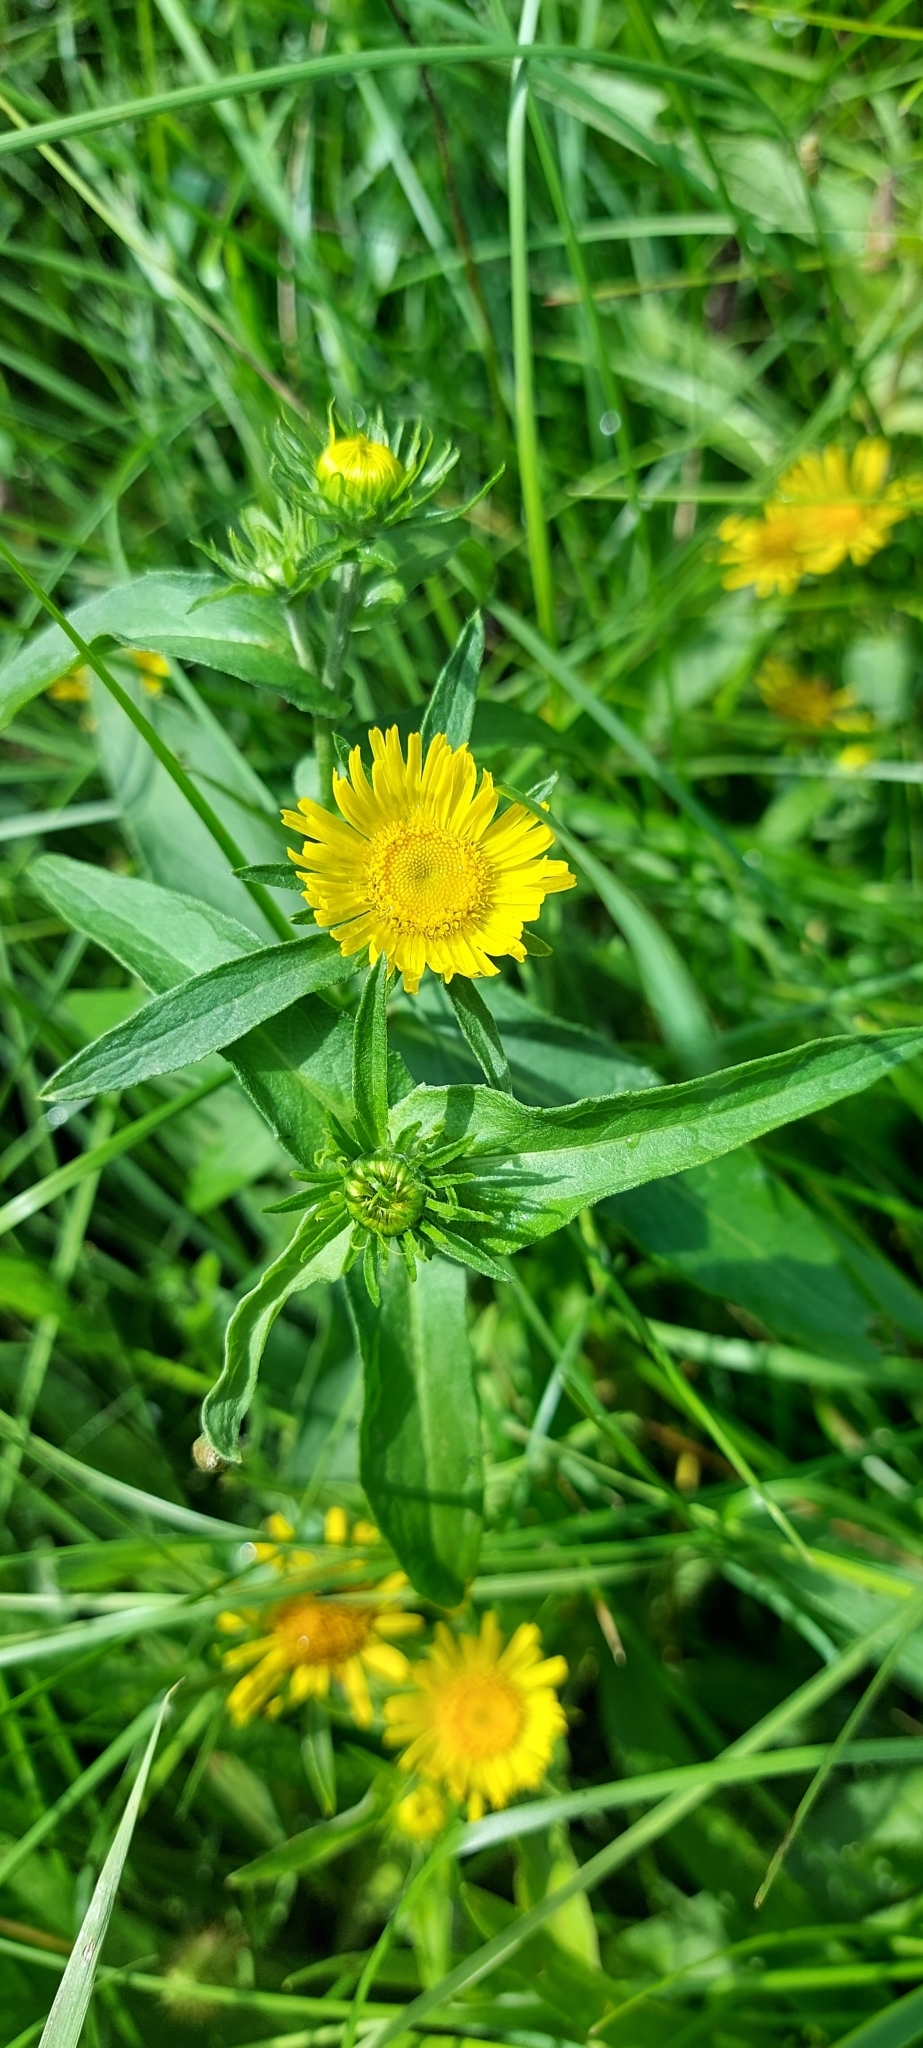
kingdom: Plantae
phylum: Tracheophyta
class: Magnoliopsida
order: Asterales
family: Asteraceae
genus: Pentanema
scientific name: Pentanema britannicum
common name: British elecampane
